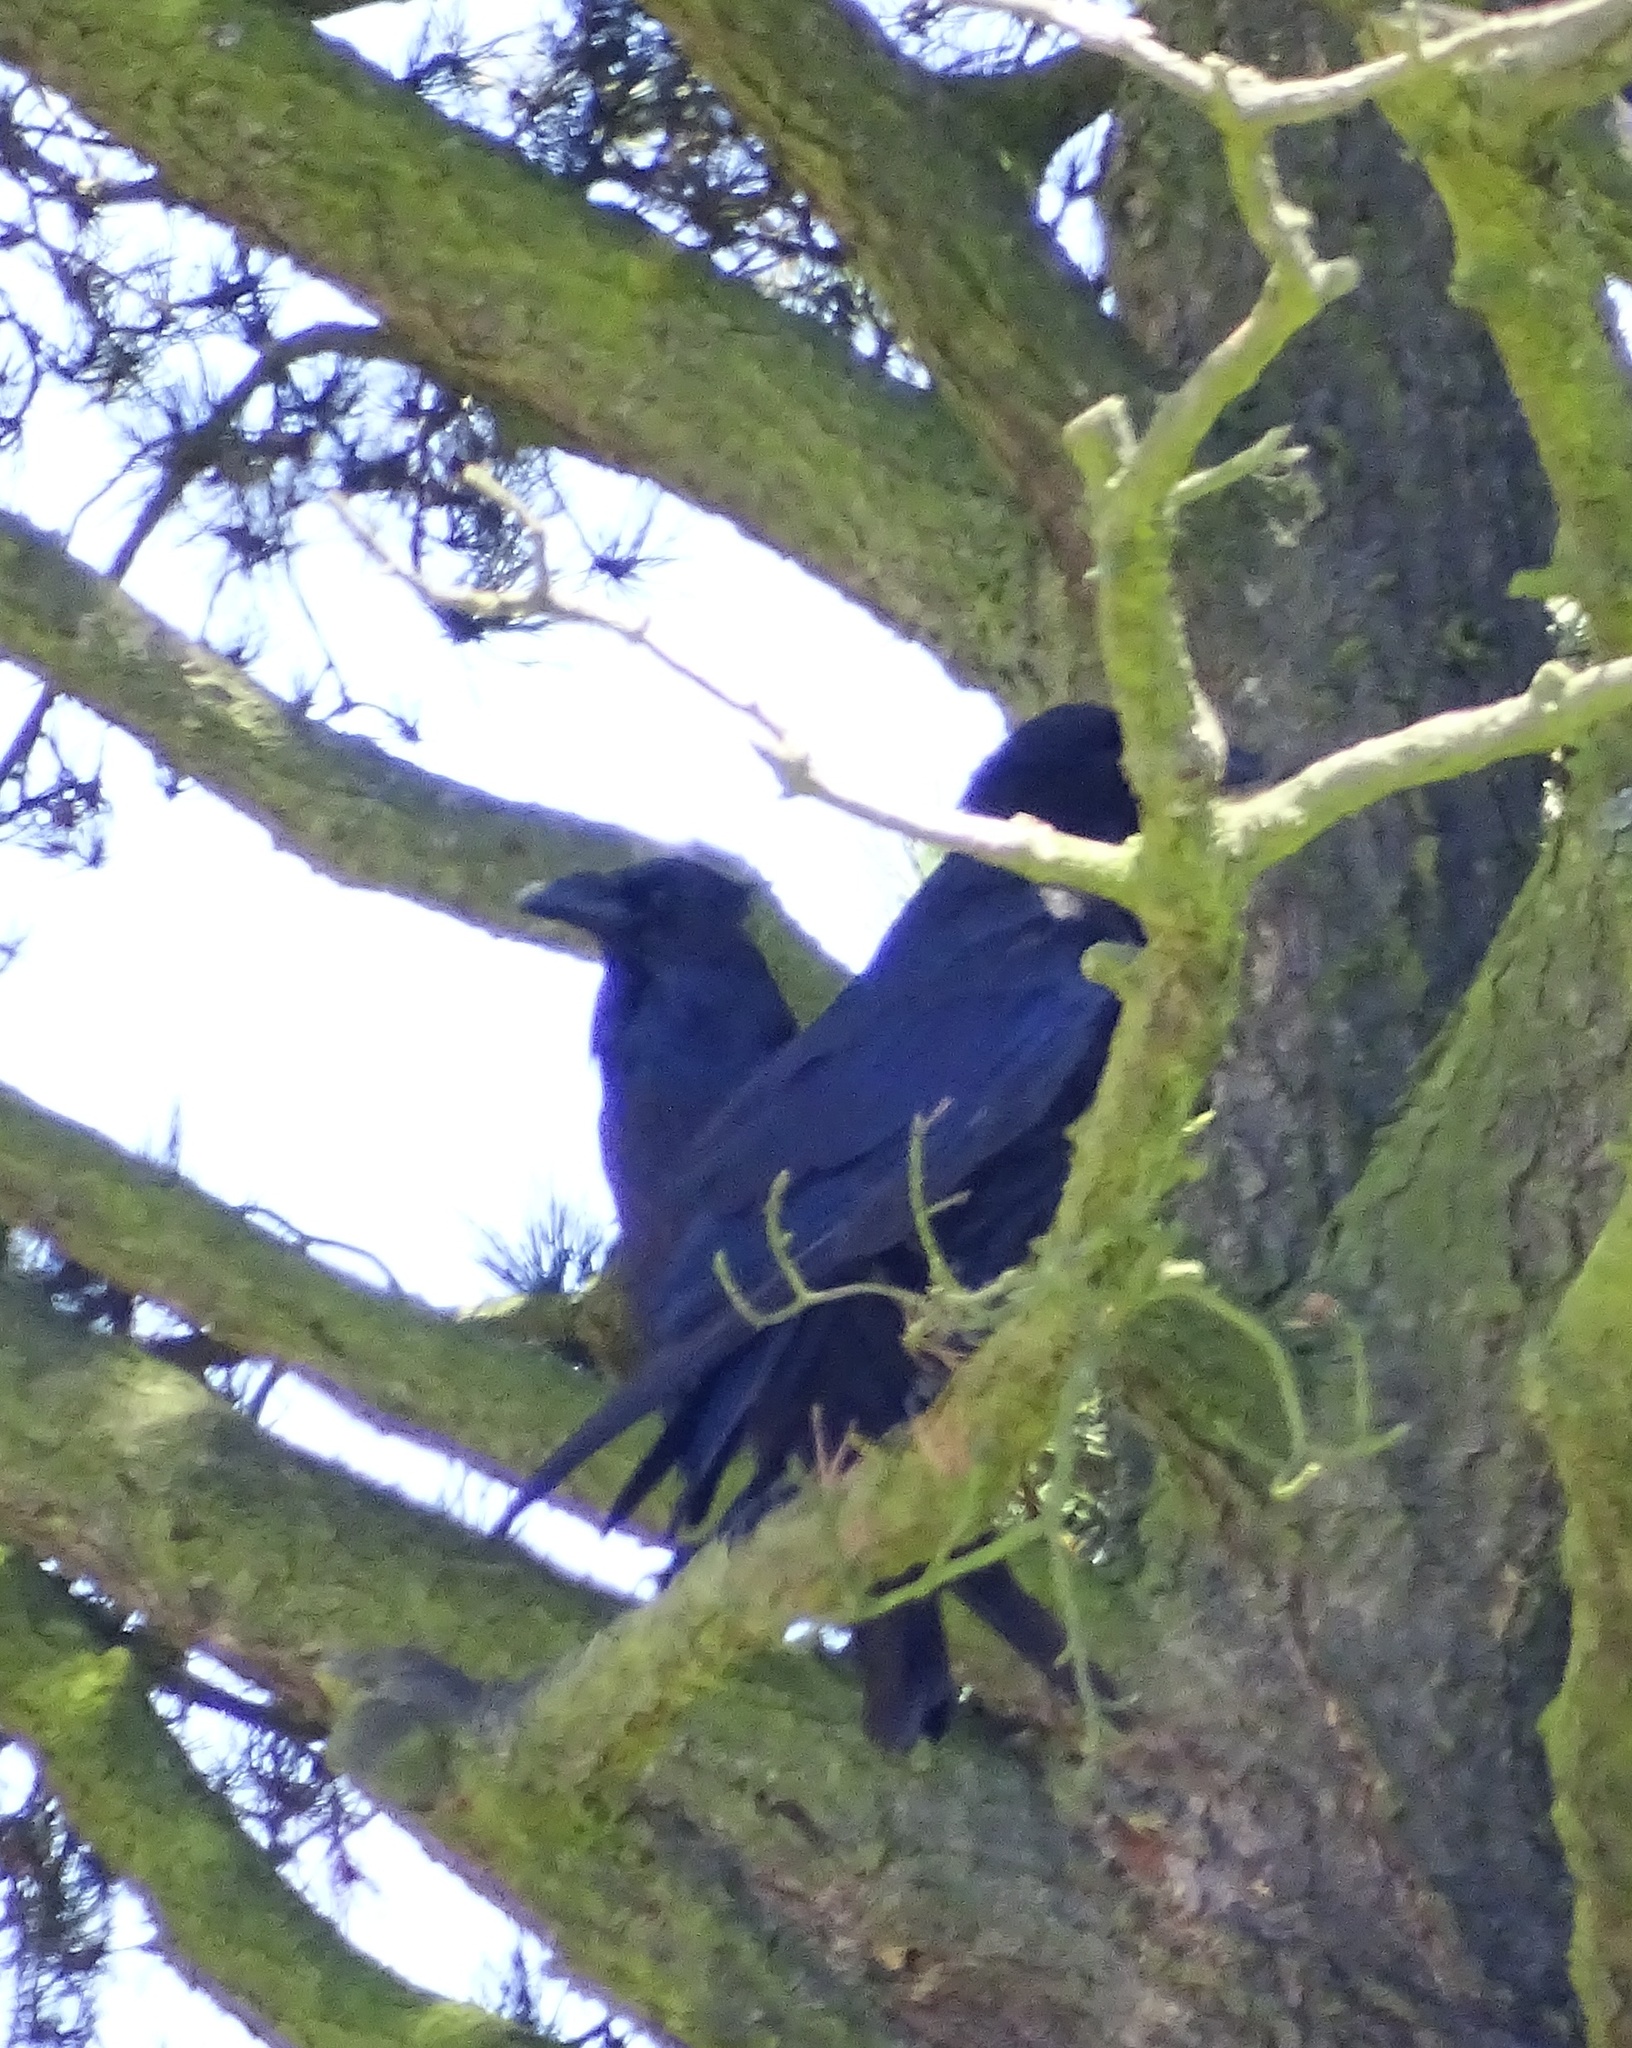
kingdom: Animalia
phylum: Chordata
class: Aves
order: Passeriformes
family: Corvidae
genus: Corvus
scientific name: Corvus corax
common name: Common raven
